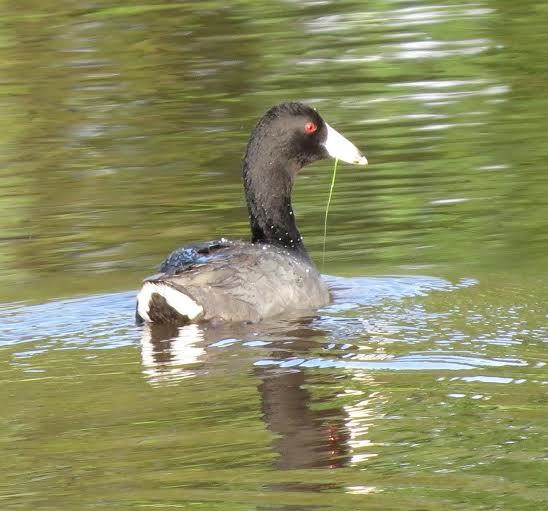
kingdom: Animalia
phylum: Chordata
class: Aves
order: Gruiformes
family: Rallidae
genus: Fulica
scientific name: Fulica americana
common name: American coot
